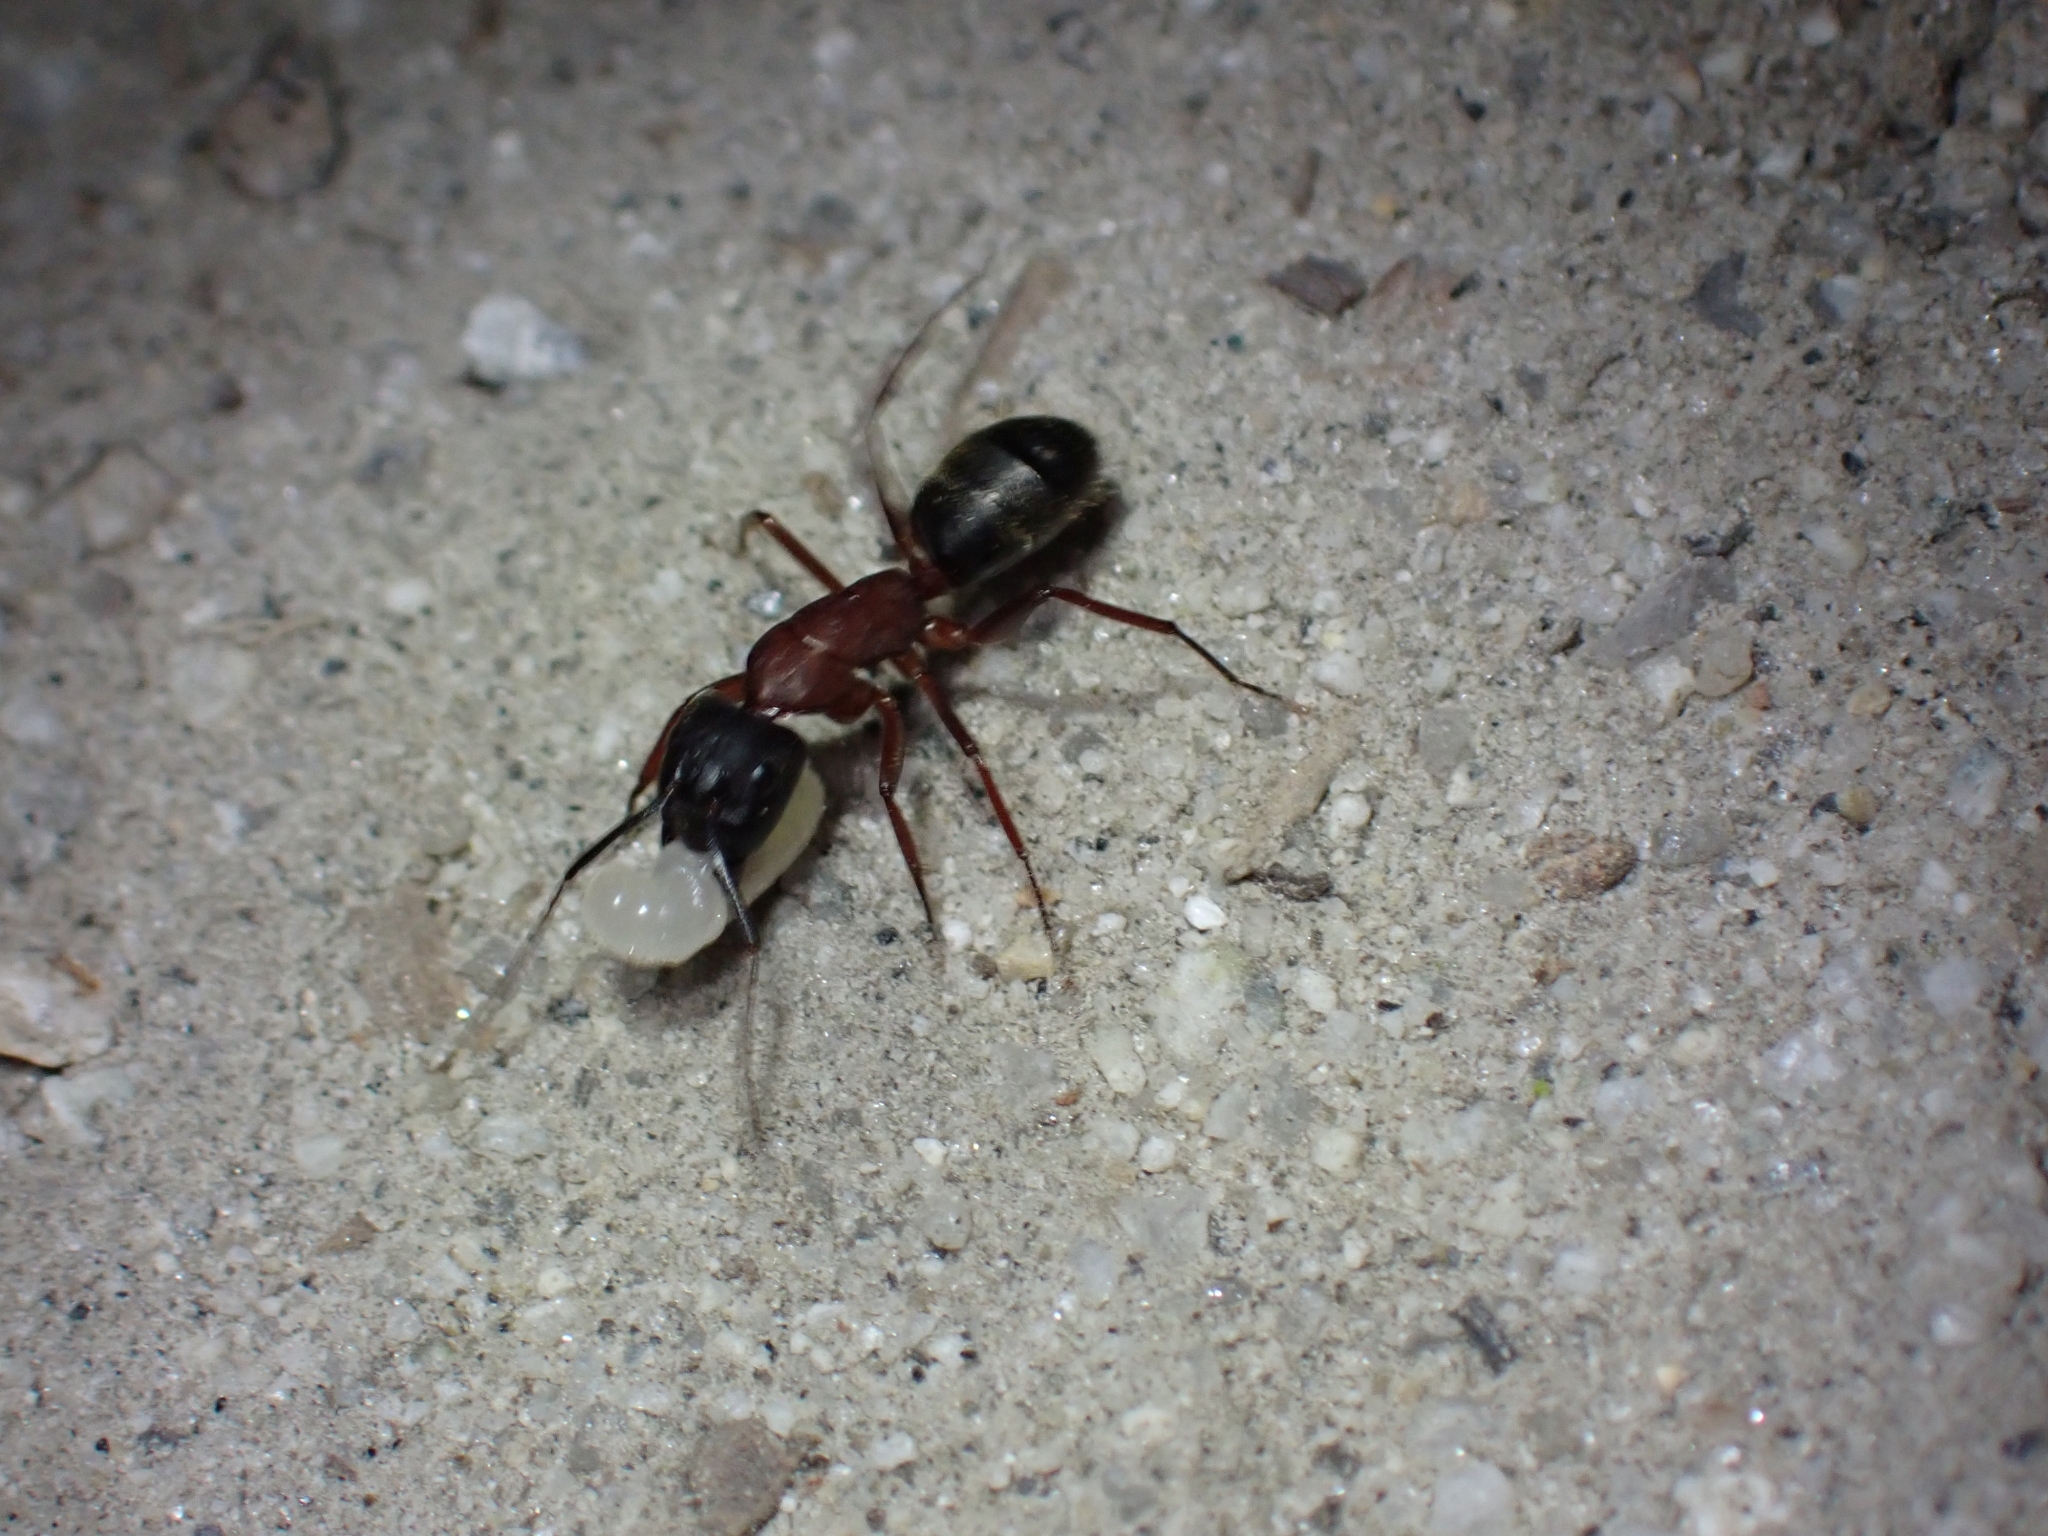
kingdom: Animalia
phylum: Arthropoda
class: Insecta
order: Hymenoptera
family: Formicidae
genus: Camponotus
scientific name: Camponotus vicinus
